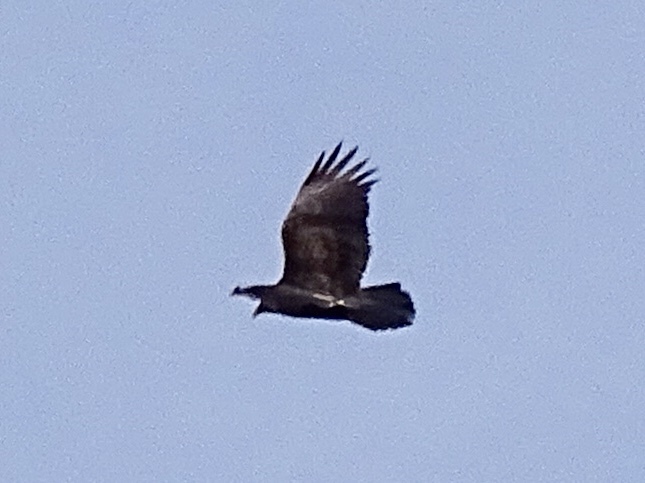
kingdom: Animalia
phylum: Chordata
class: Aves
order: Accipitriformes
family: Cathartidae
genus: Cathartes
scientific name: Cathartes aura
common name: Turkey vulture
